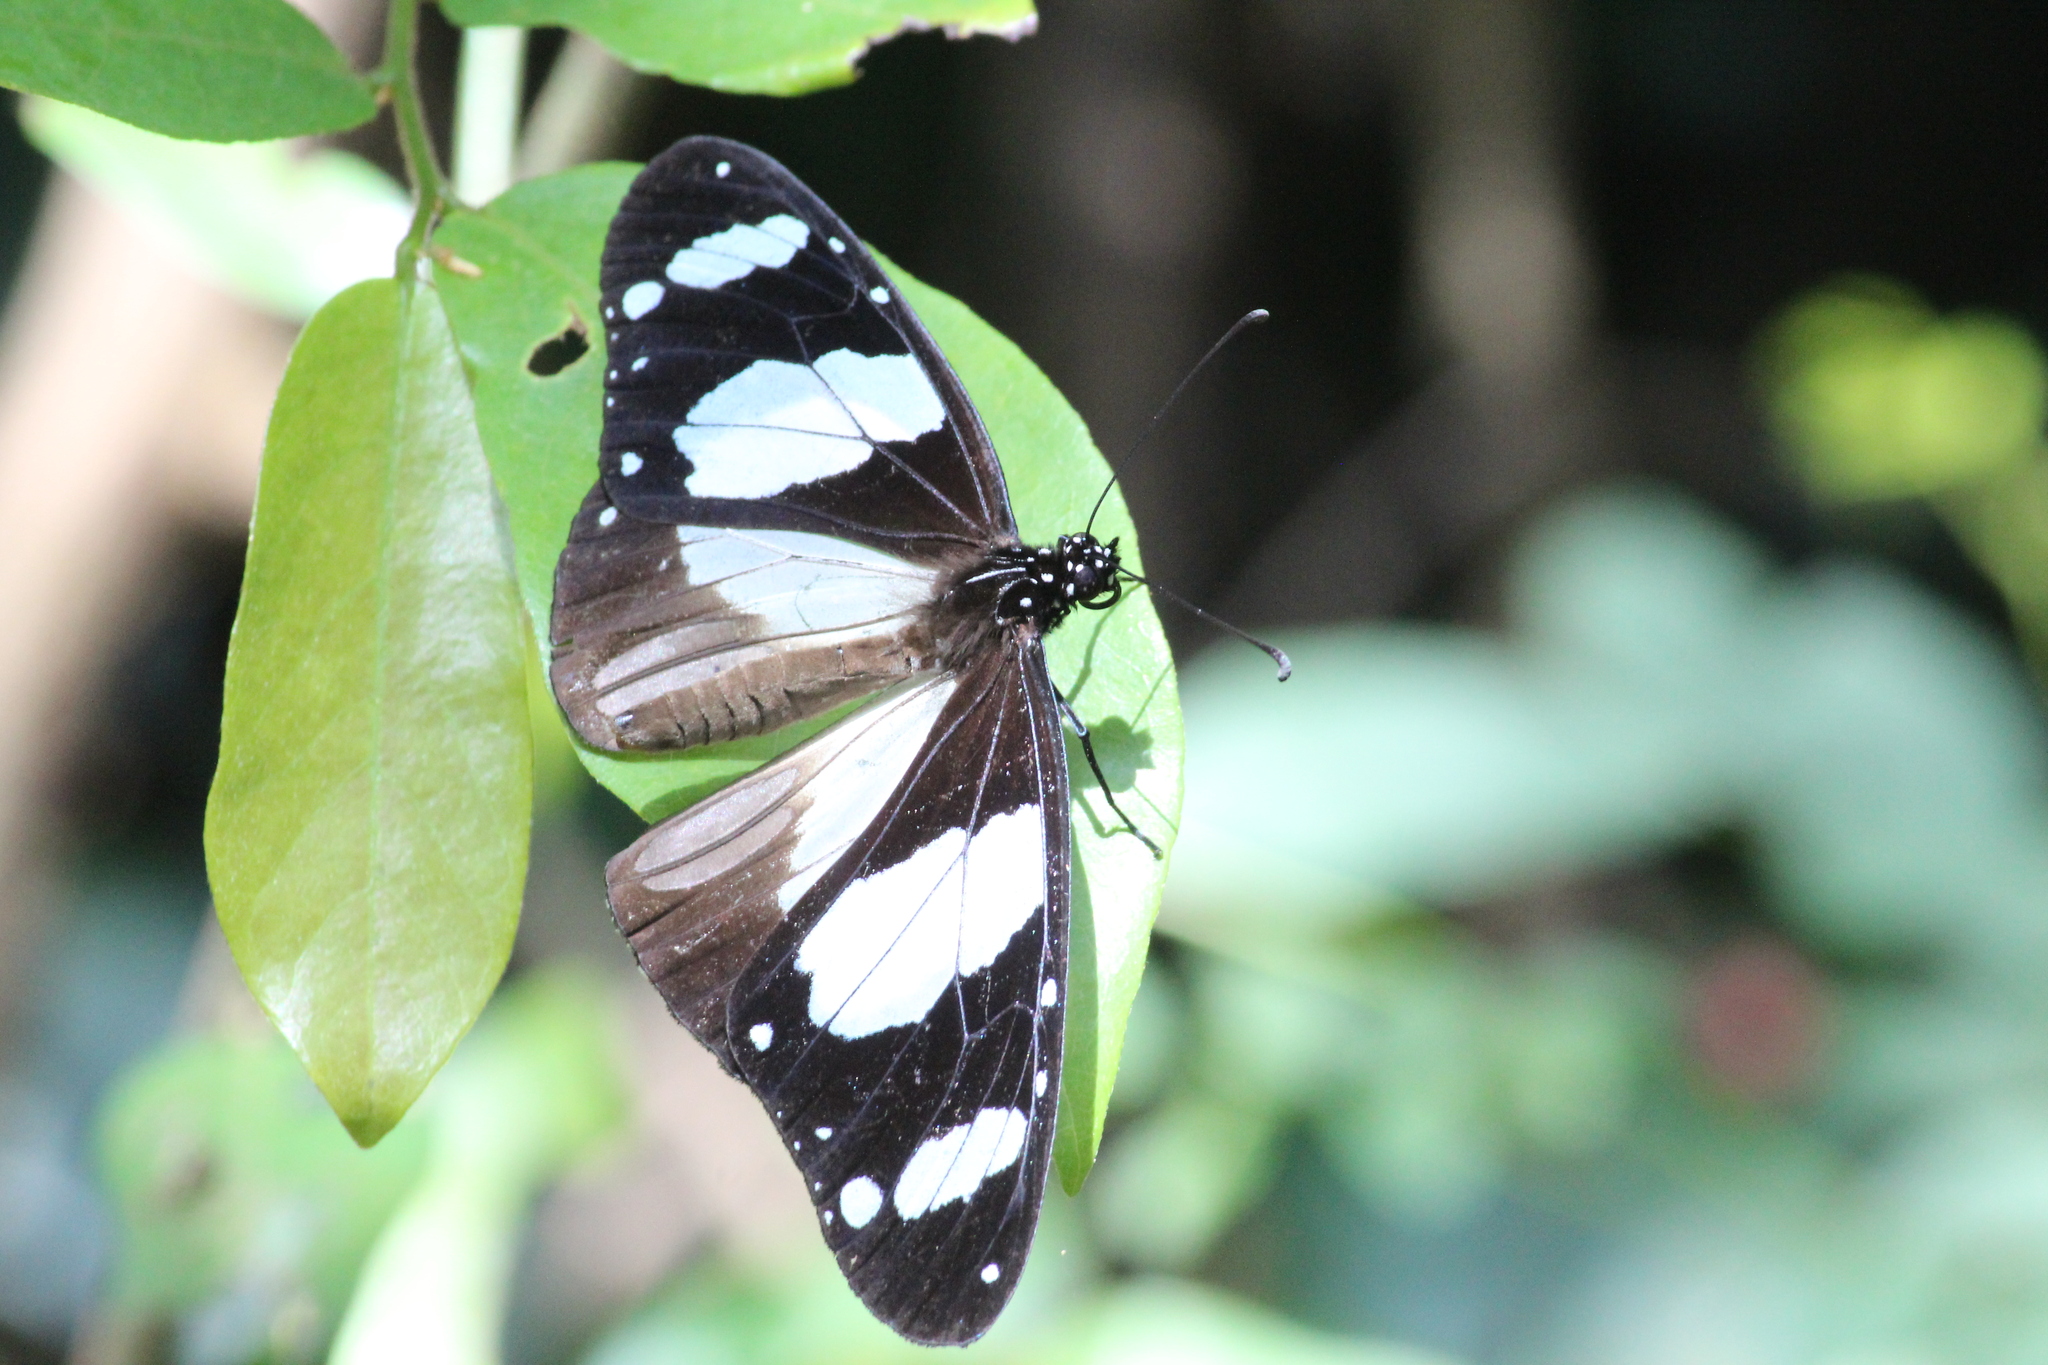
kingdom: Animalia
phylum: Arthropoda
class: Insecta
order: Lepidoptera
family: Nymphalidae
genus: Amauris
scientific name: Amauris ochlea
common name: Novice
